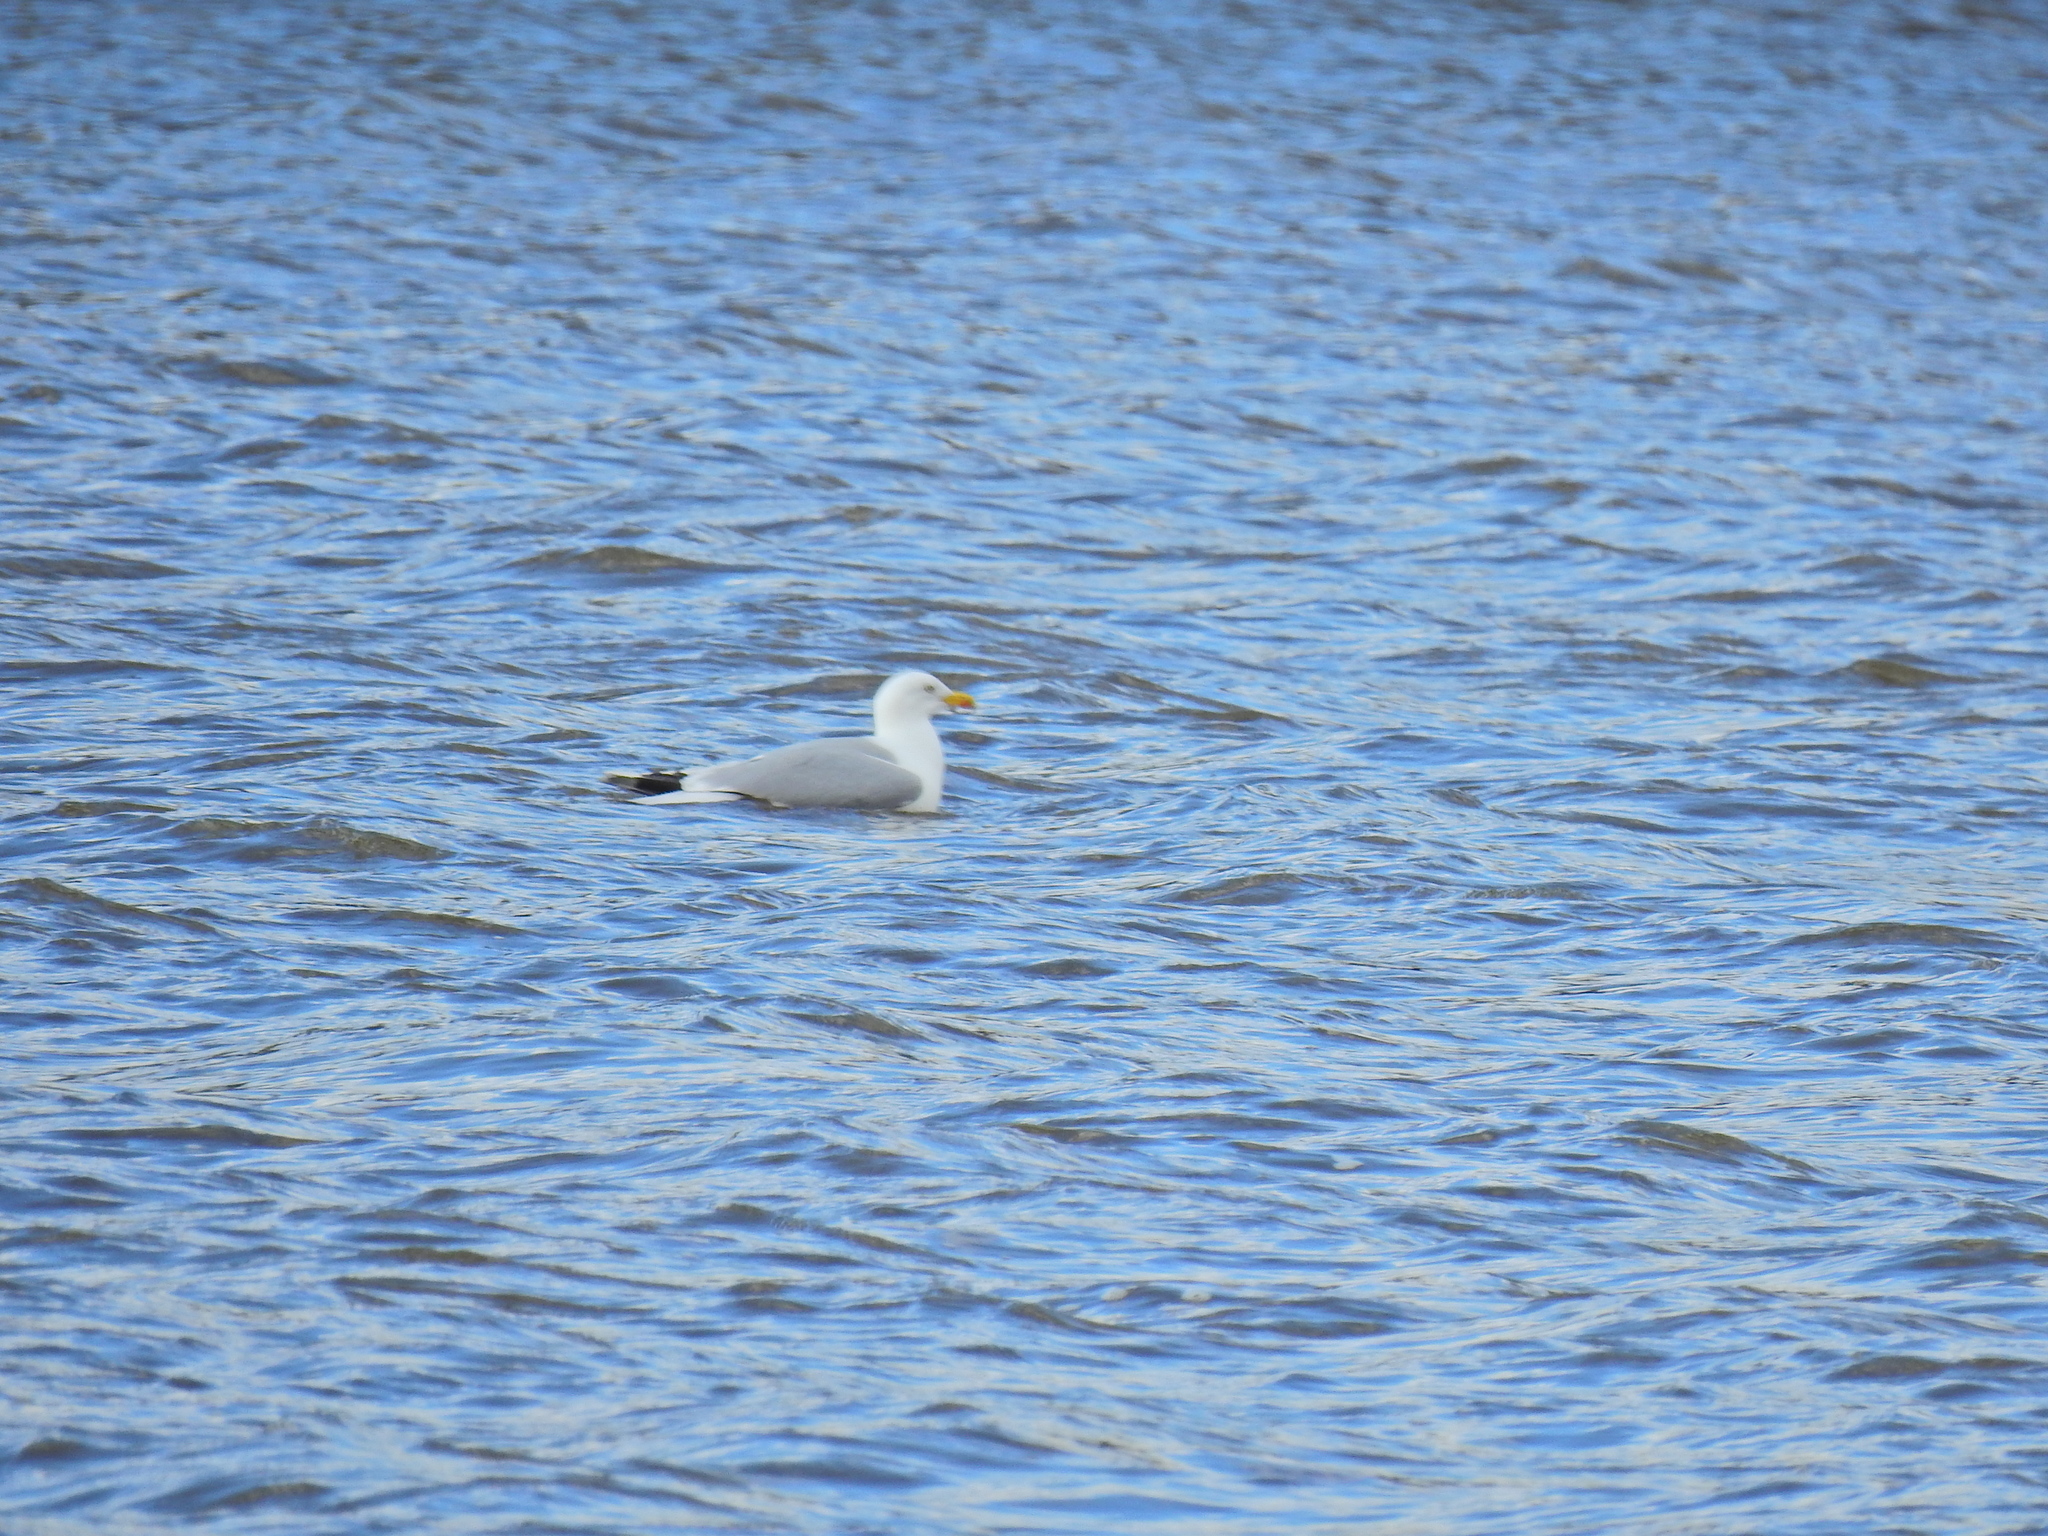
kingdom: Animalia
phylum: Chordata
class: Aves
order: Charadriiformes
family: Laridae
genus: Larus
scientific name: Larus argentatus
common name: Herring gull
